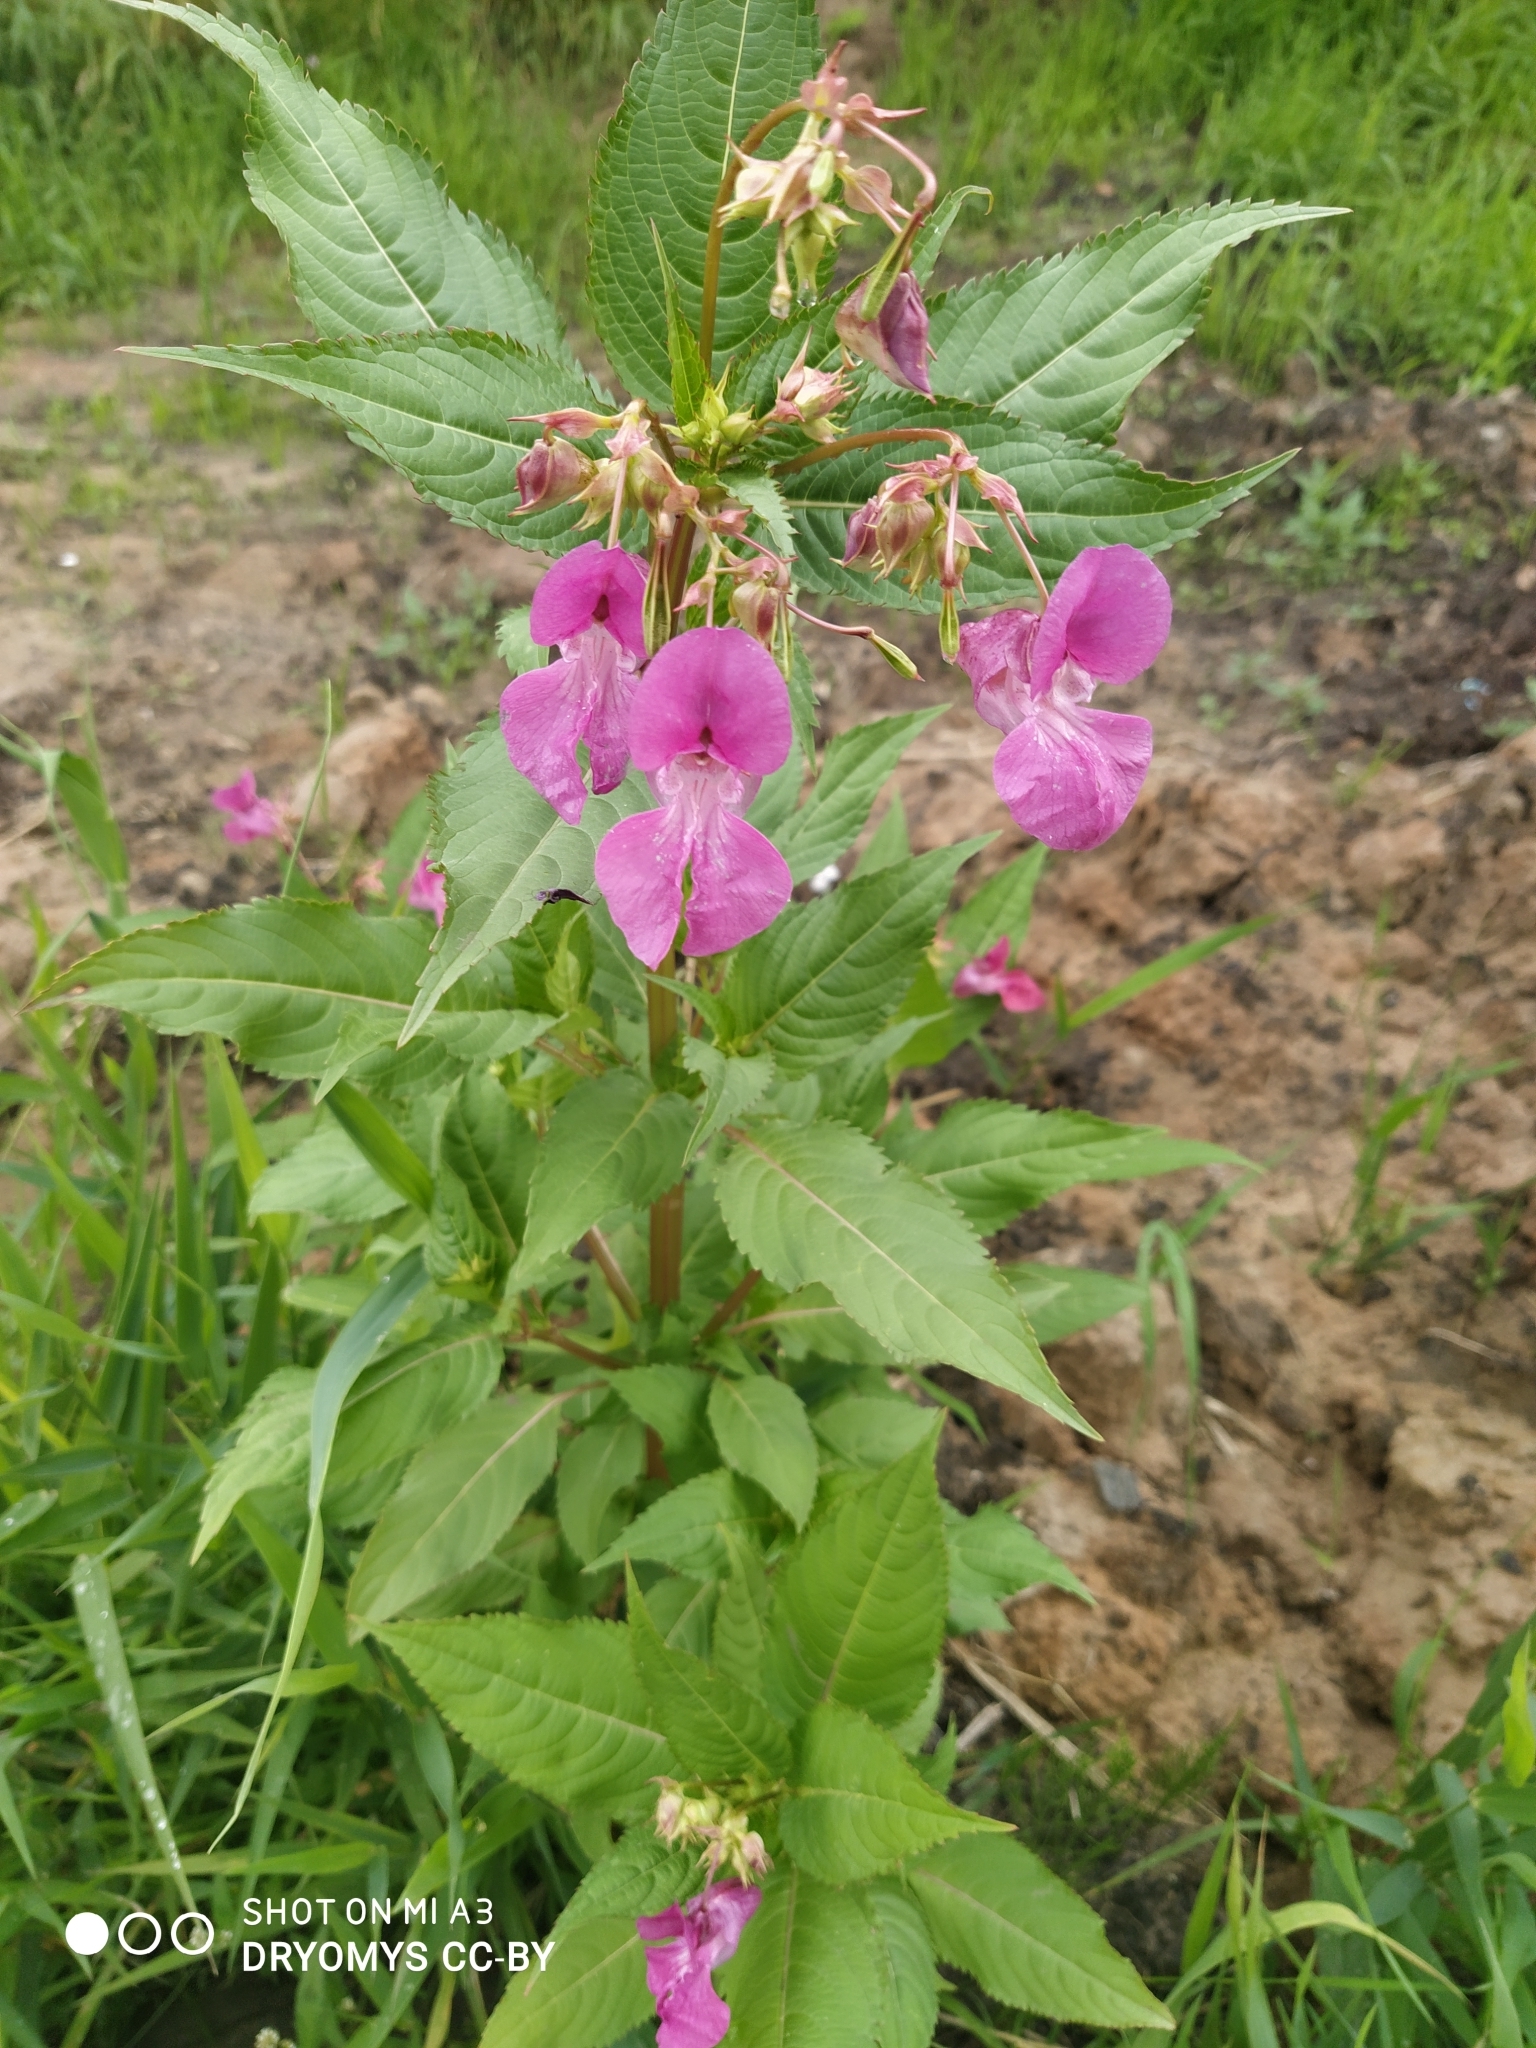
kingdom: Plantae
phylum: Tracheophyta
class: Magnoliopsida
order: Ericales
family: Balsaminaceae
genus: Impatiens
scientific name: Impatiens glandulifera
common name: Himalayan balsam
